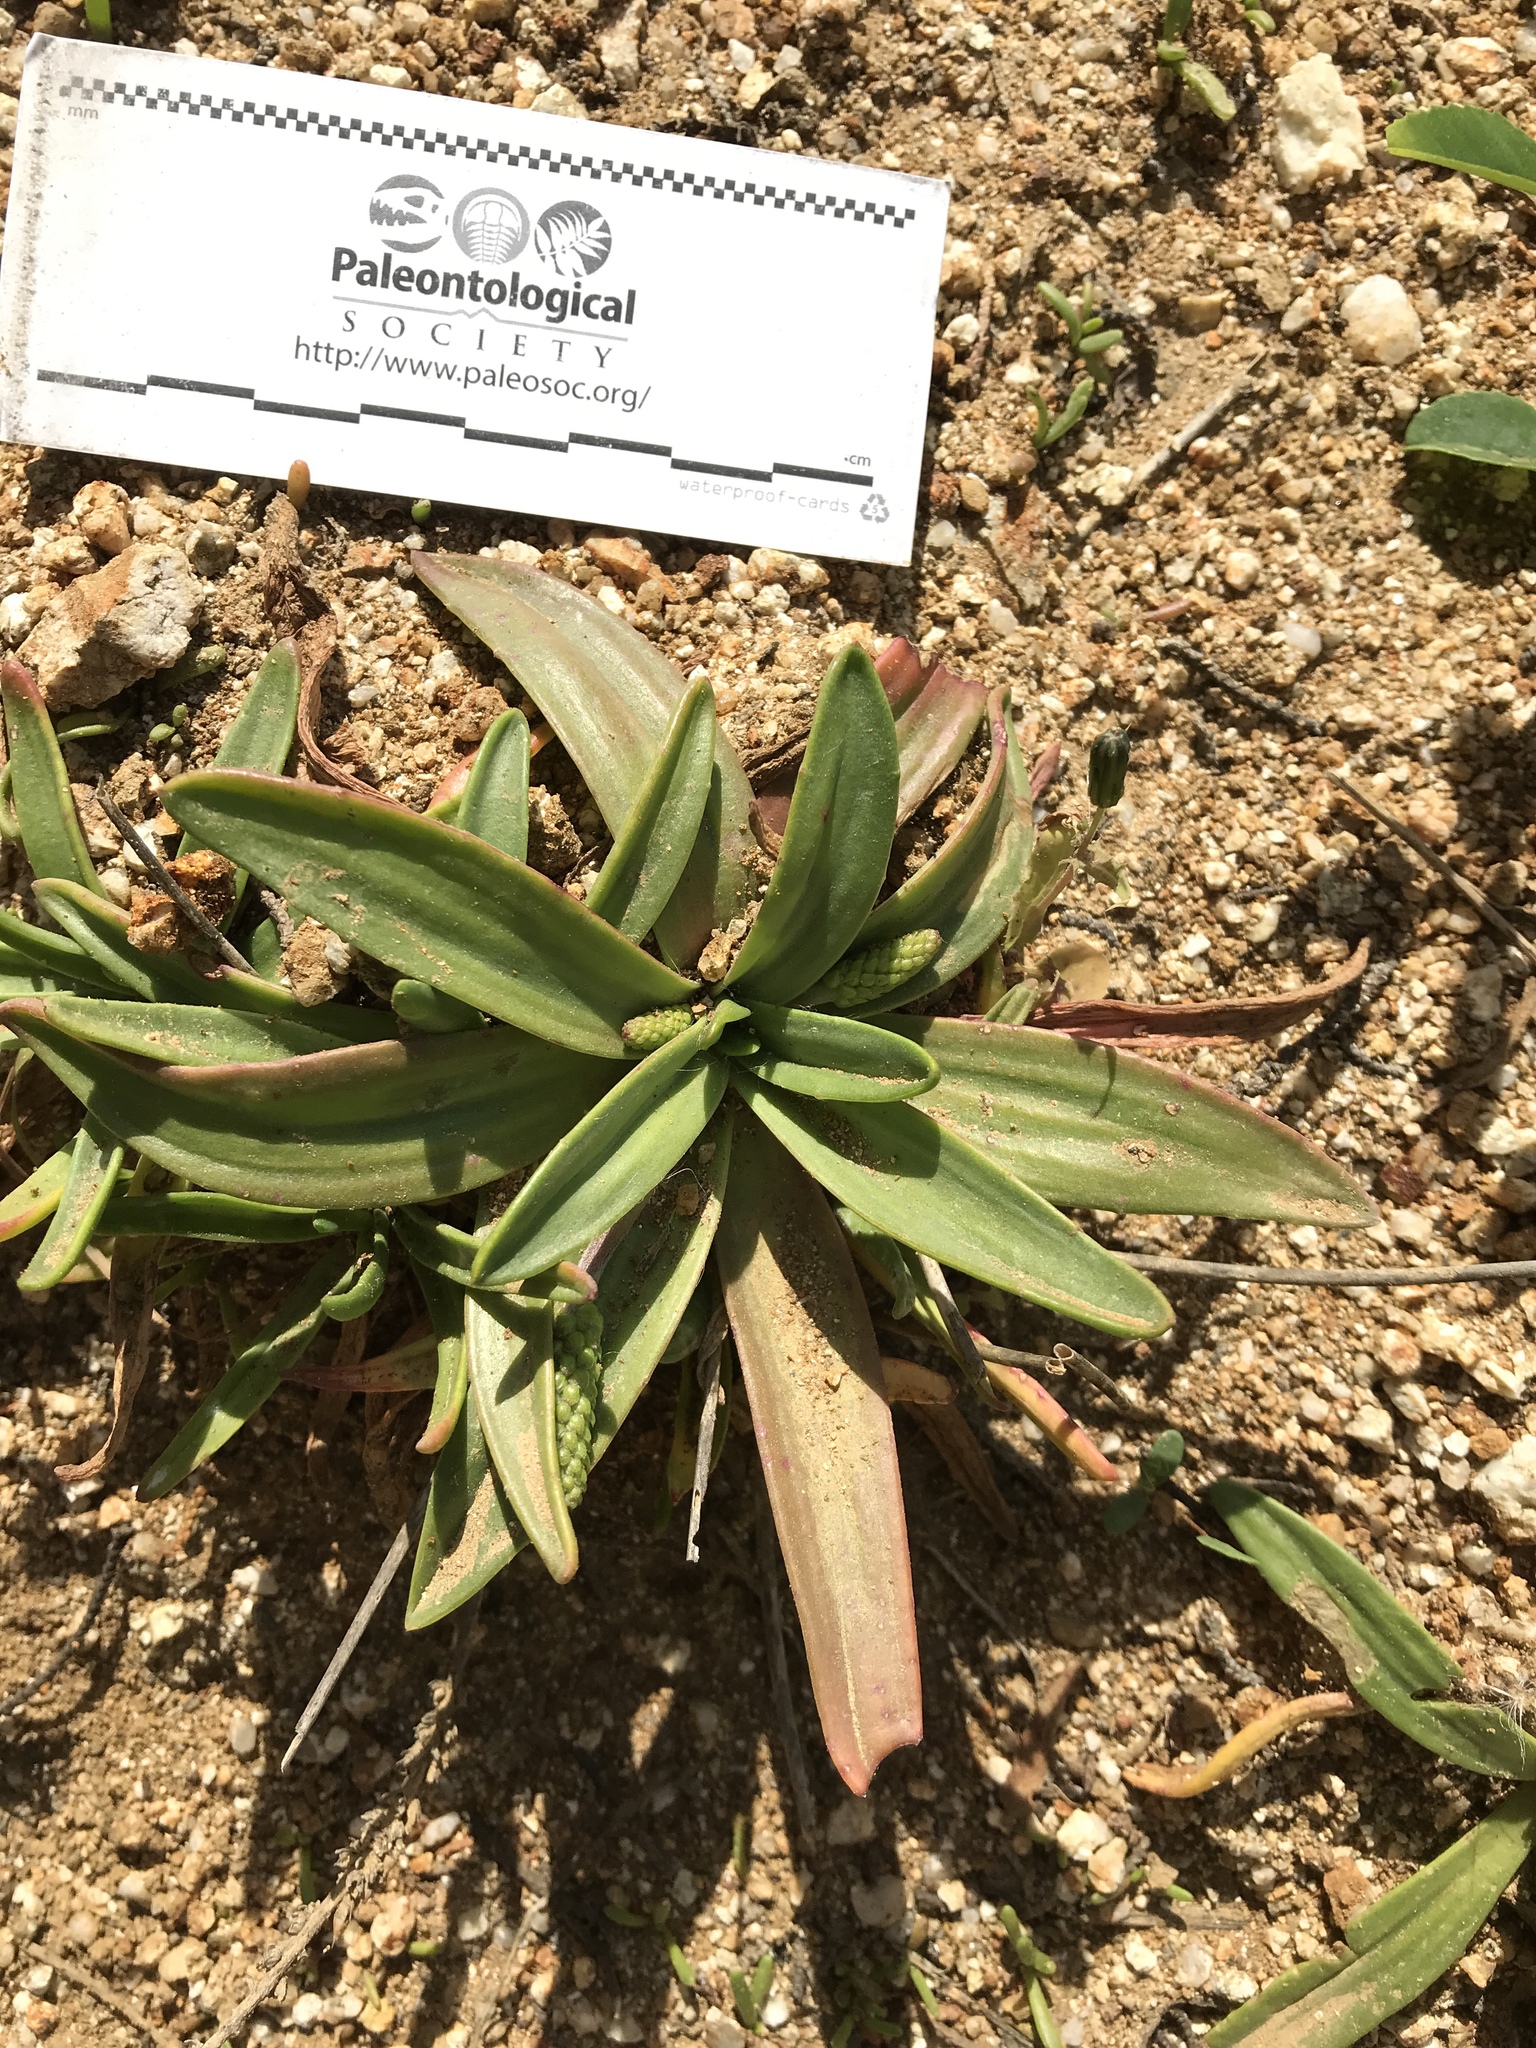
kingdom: Plantae
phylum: Tracheophyta
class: Magnoliopsida
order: Lamiales
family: Plantaginaceae
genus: Plantago
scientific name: Plantago maritima
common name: Sea plantain
